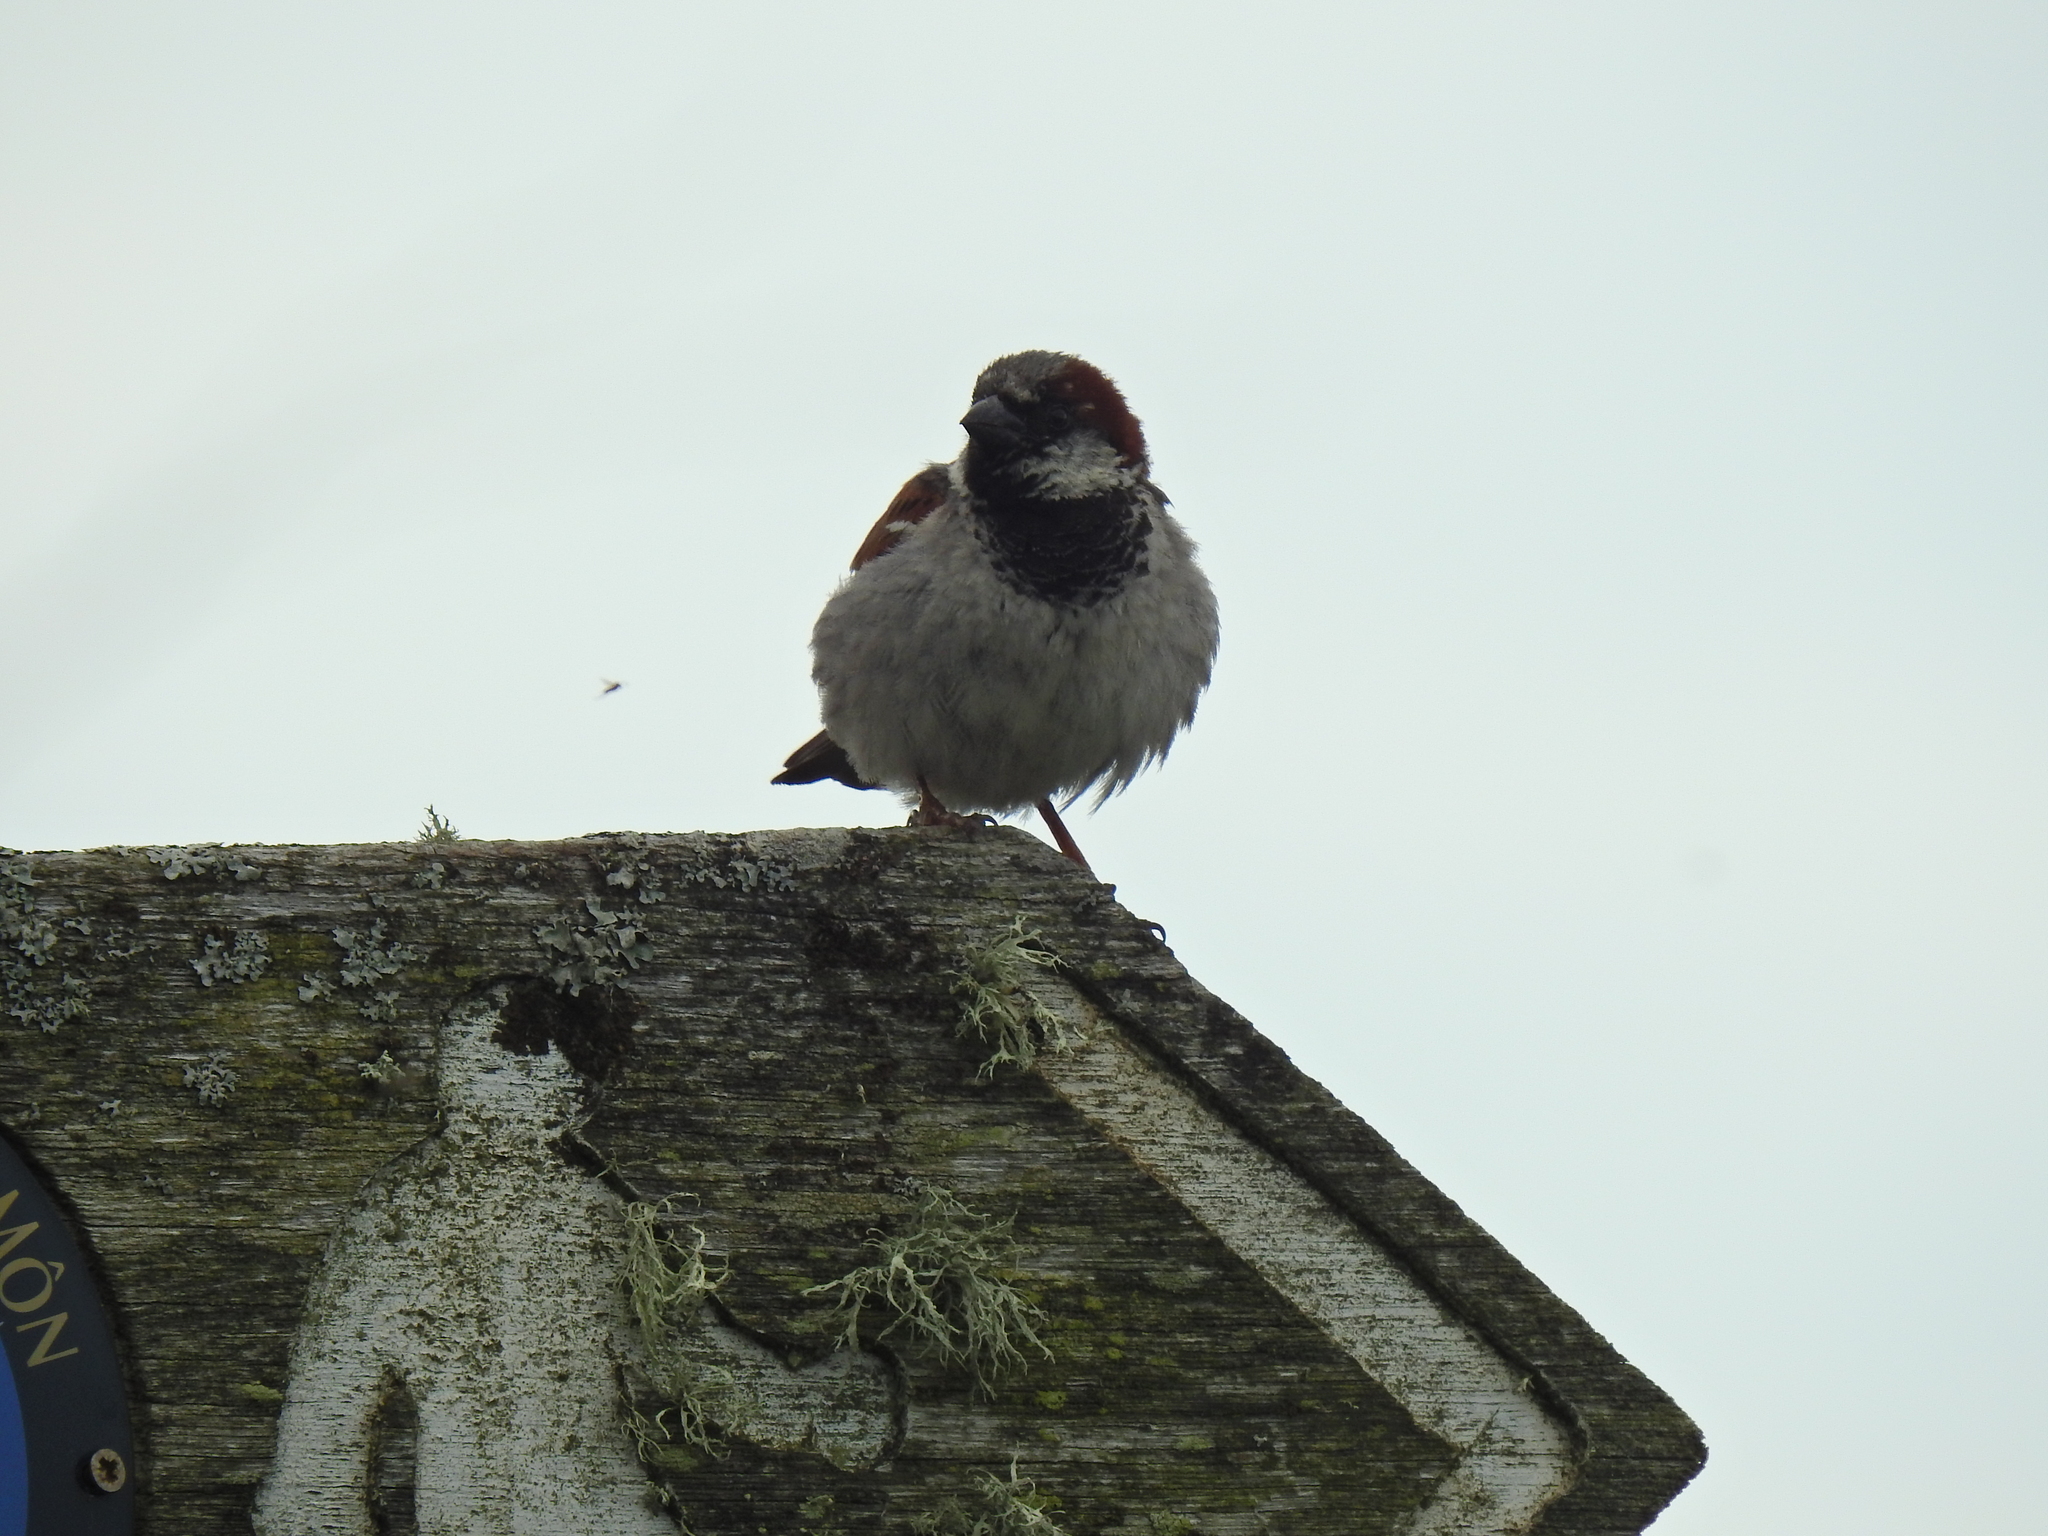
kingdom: Animalia
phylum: Chordata
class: Aves
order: Passeriformes
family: Passeridae
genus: Passer
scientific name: Passer domesticus
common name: House sparrow
